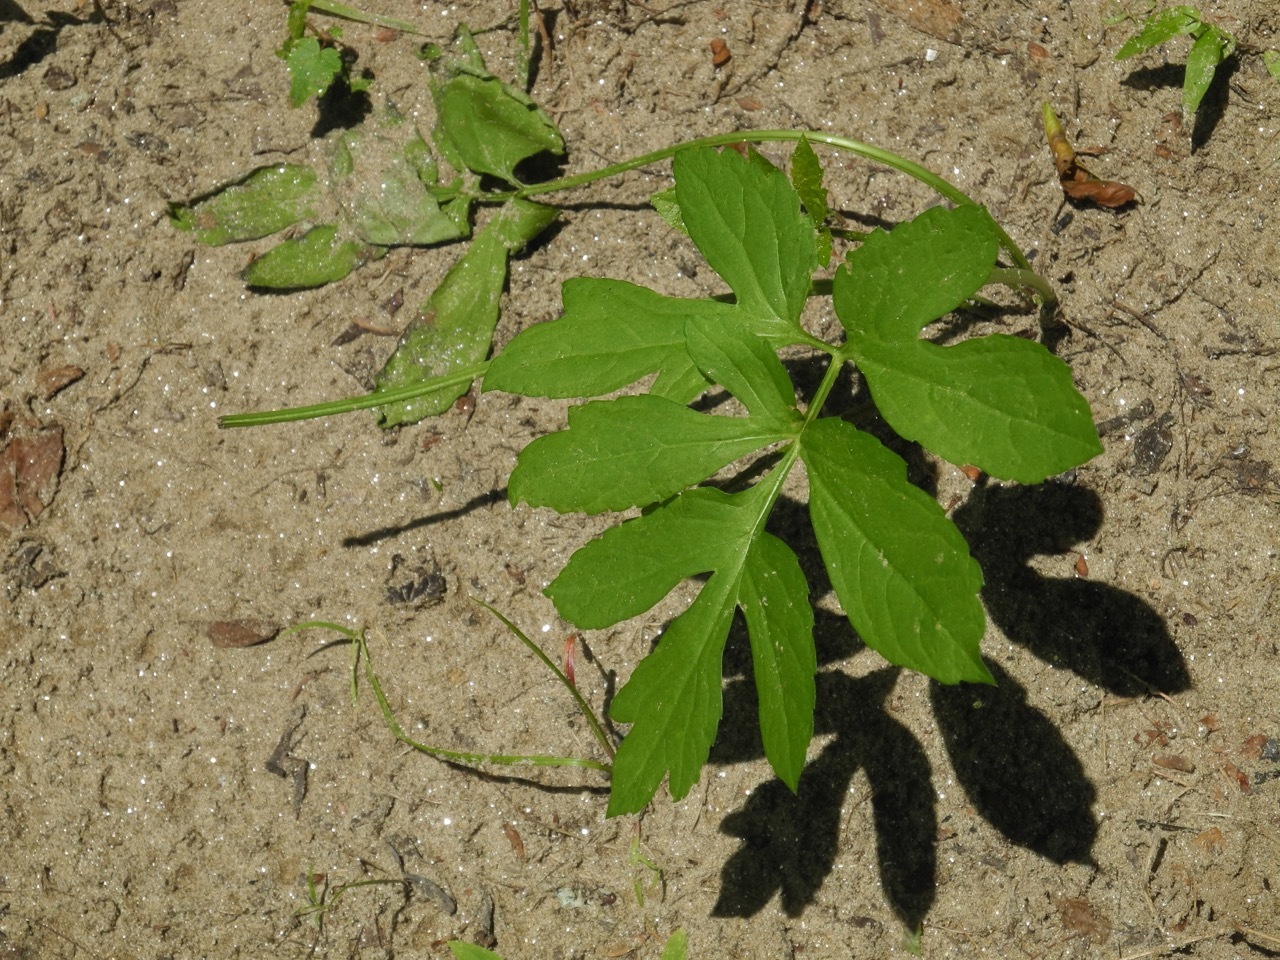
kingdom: Plantae
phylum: Tracheophyta
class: Magnoliopsida
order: Asterales
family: Asteraceae
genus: Nabalus
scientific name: Nabalus serpentarius
